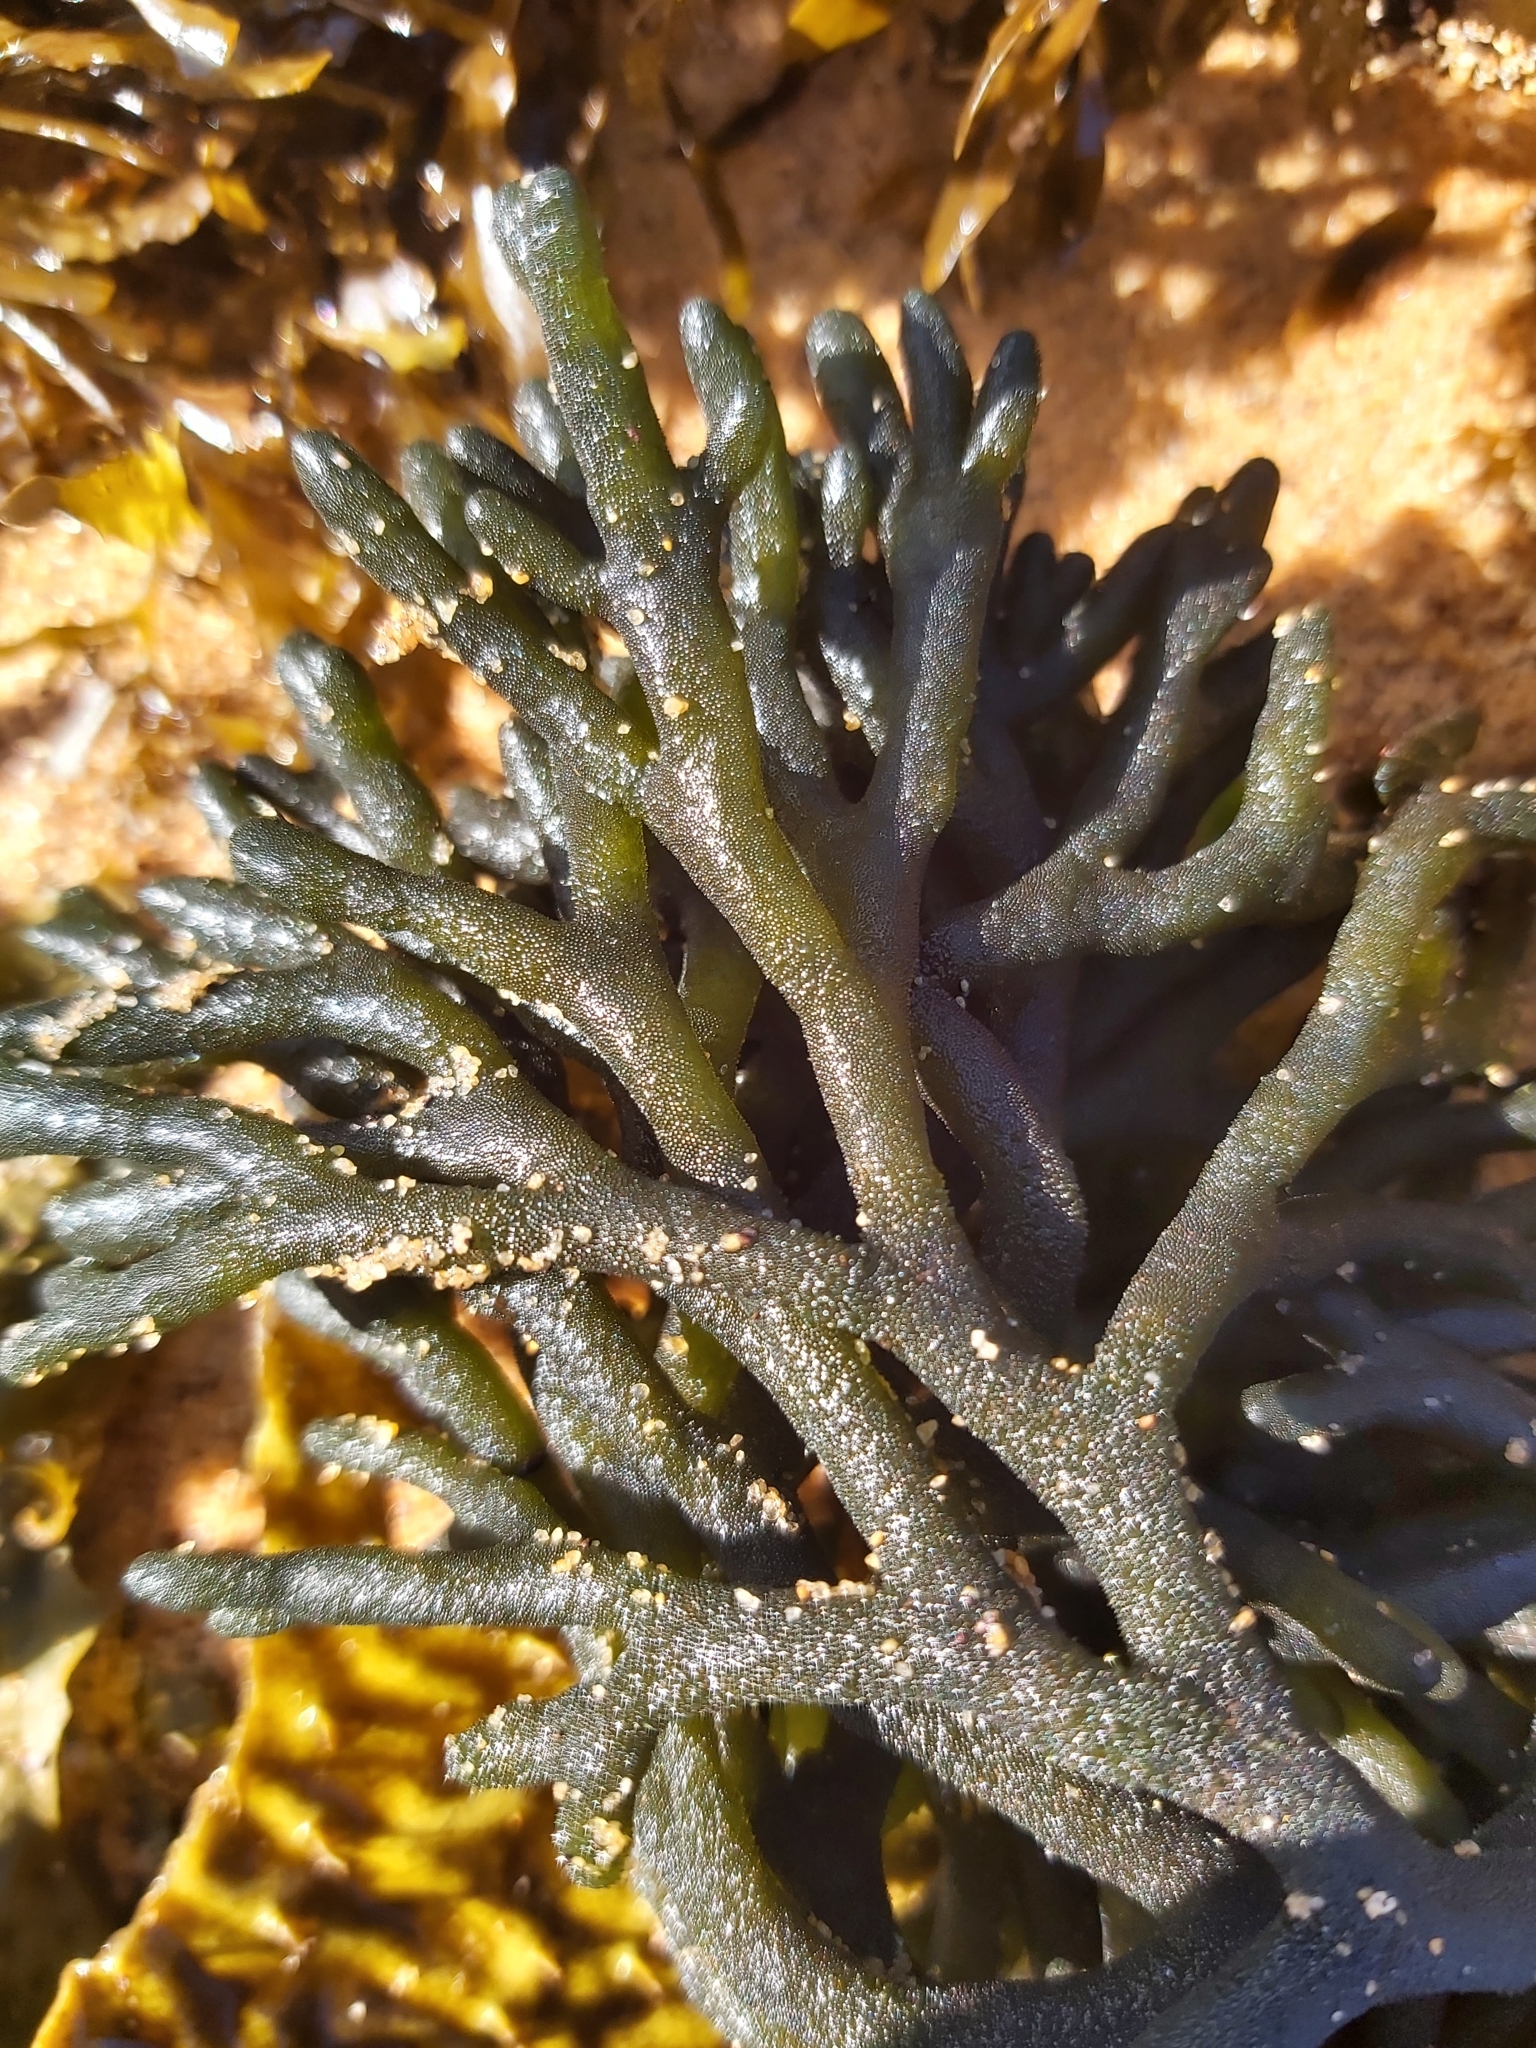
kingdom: Plantae
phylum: Chlorophyta
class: Ulvophyceae
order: Bryopsidales
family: Codiaceae
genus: Codium
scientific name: Codium fragile
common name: Dead man's fingers
